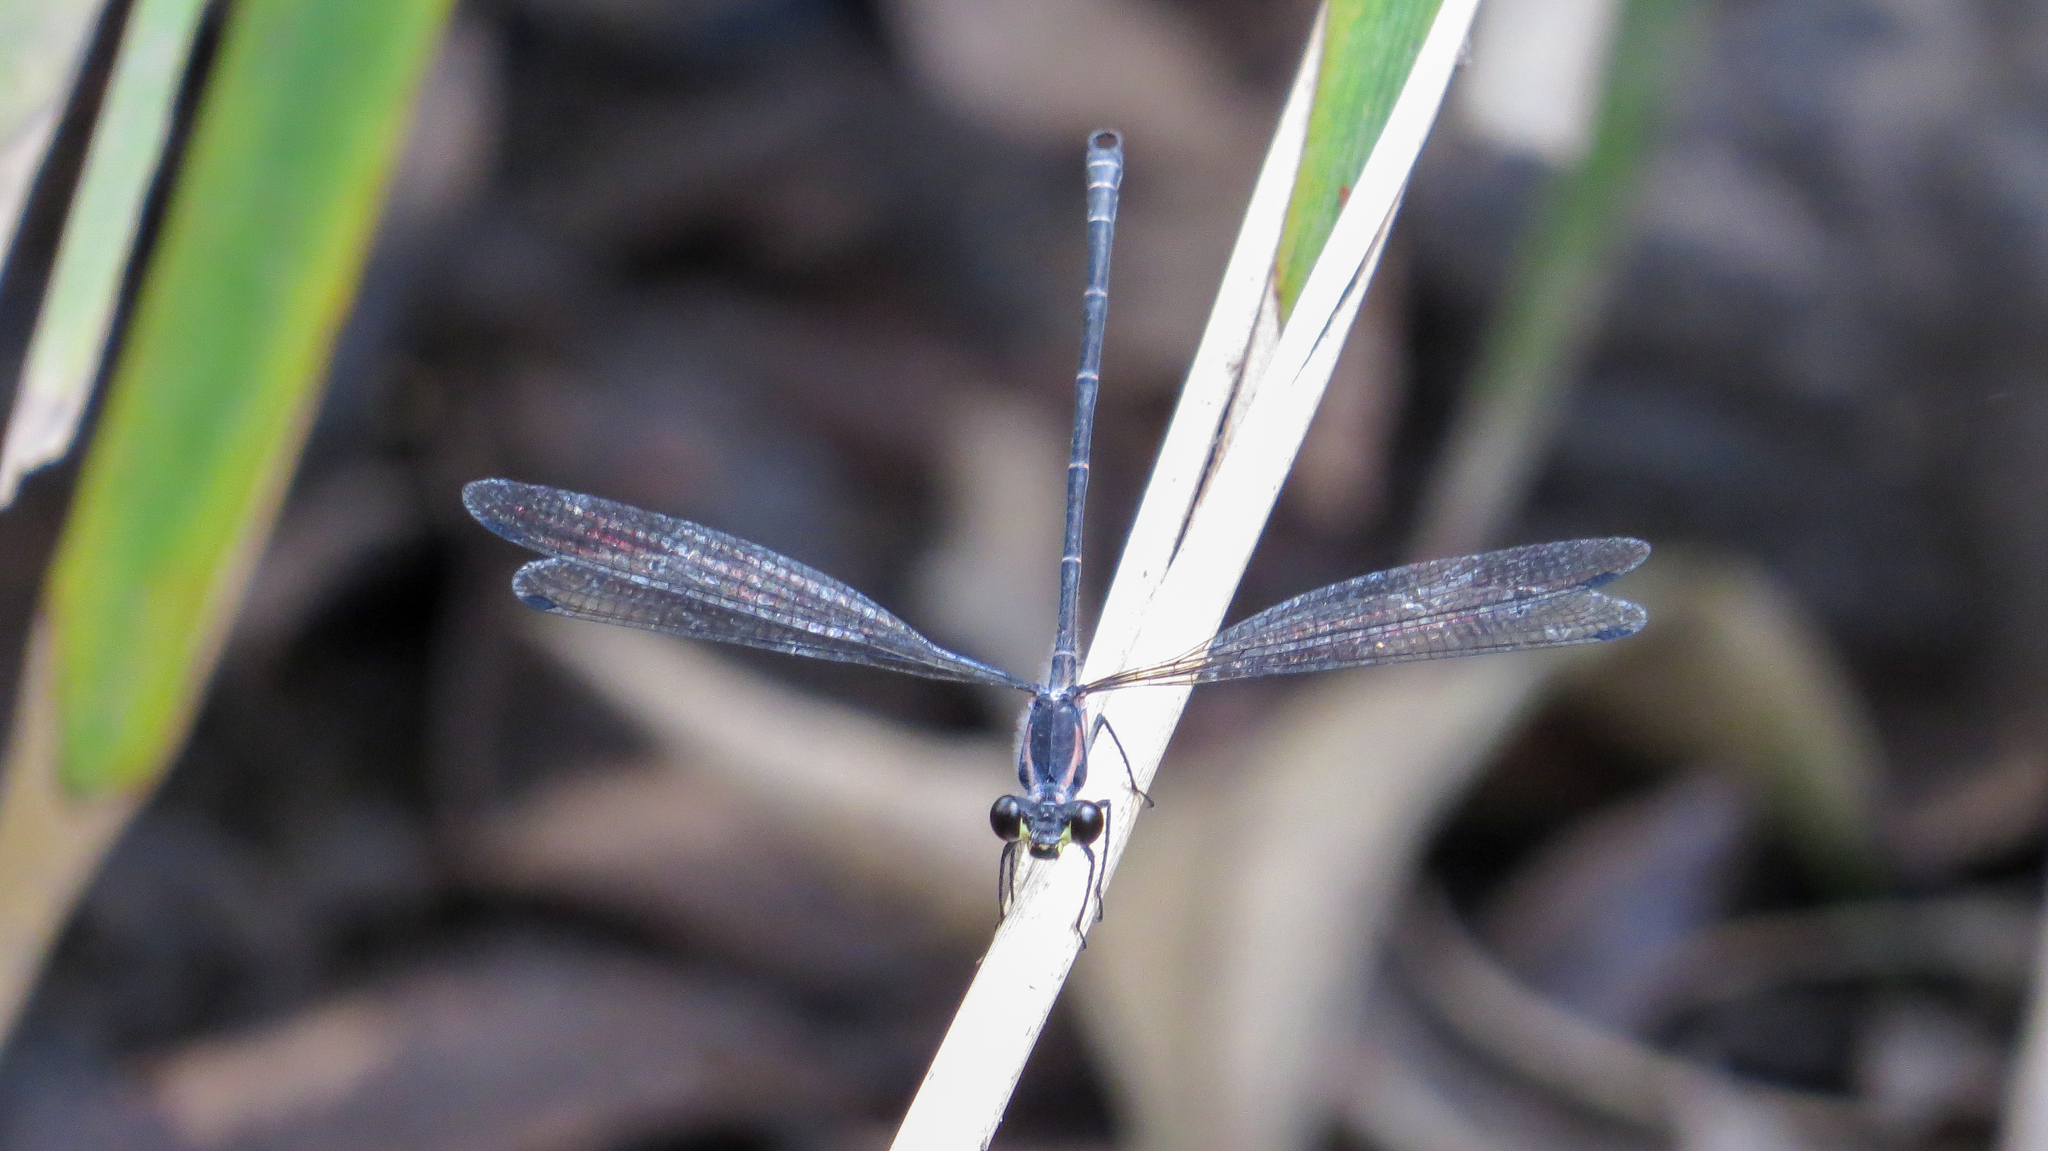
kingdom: Animalia
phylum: Arthropoda
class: Insecta
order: Odonata
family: Argiolestidae
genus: Austroargiolestes
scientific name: Austroargiolestes icteromelas
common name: Common flatwing
